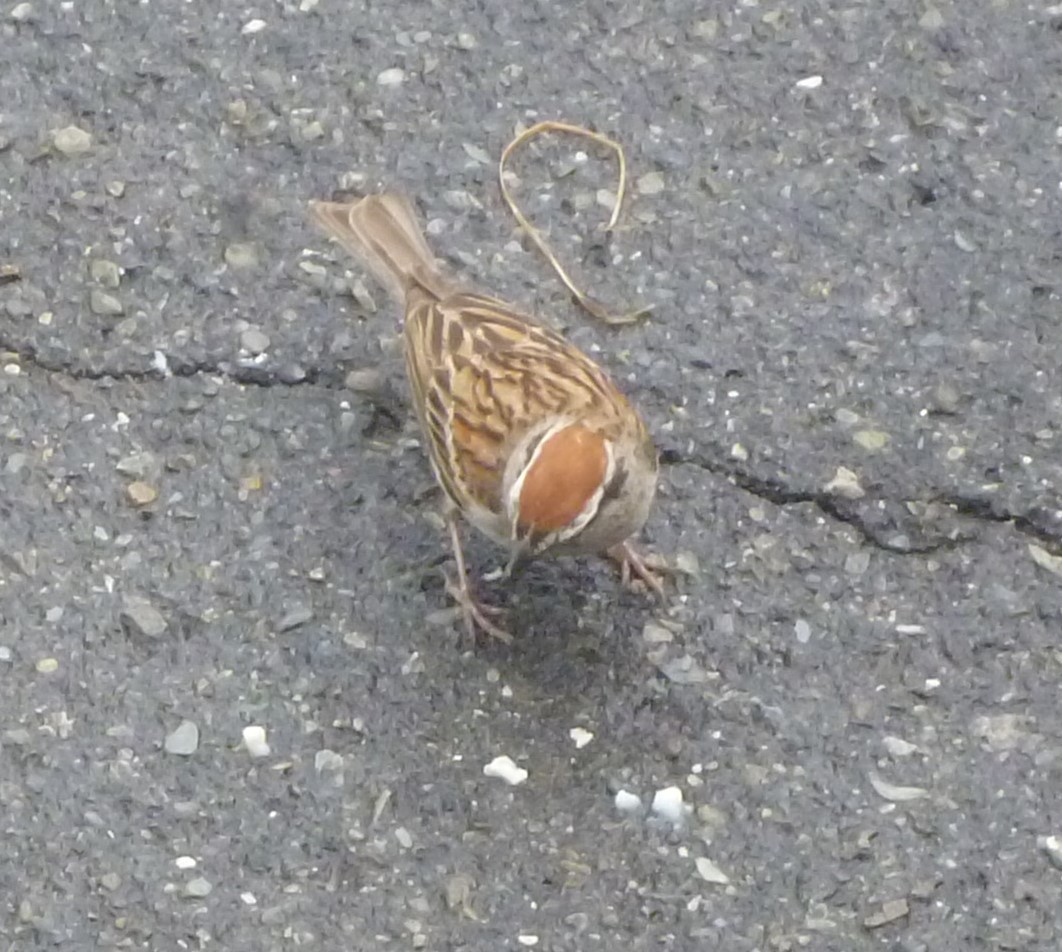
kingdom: Animalia
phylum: Chordata
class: Aves
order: Passeriformes
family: Passerellidae
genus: Spizella
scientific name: Spizella passerina
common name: Chipping sparrow
